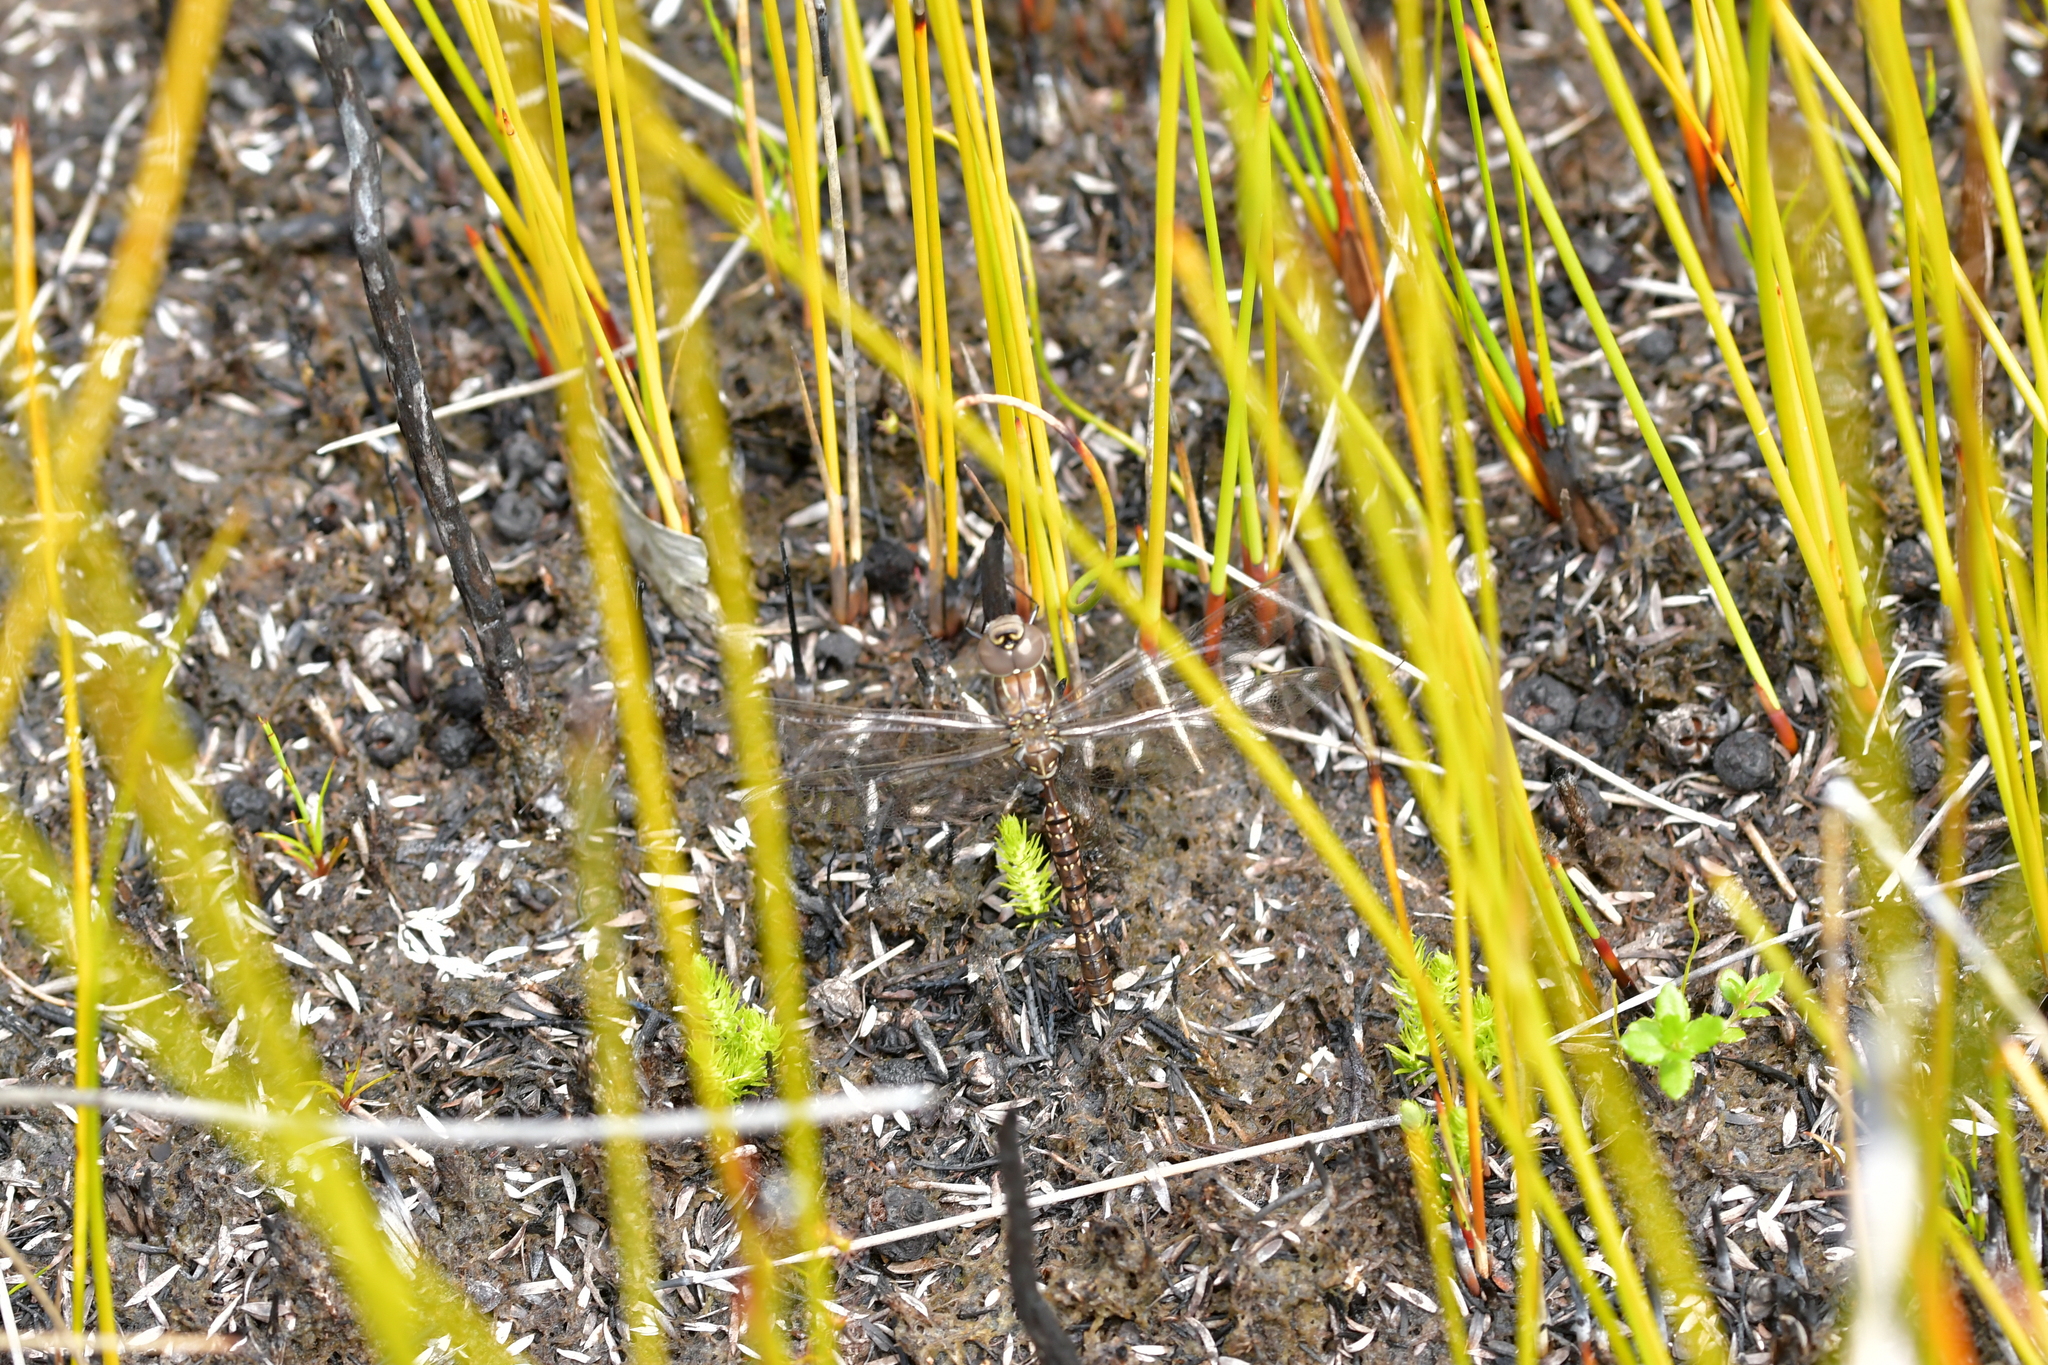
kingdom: Animalia
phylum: Arthropoda
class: Insecta
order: Odonata
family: Aeshnidae
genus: Aeshna
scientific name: Aeshna brevistyla
